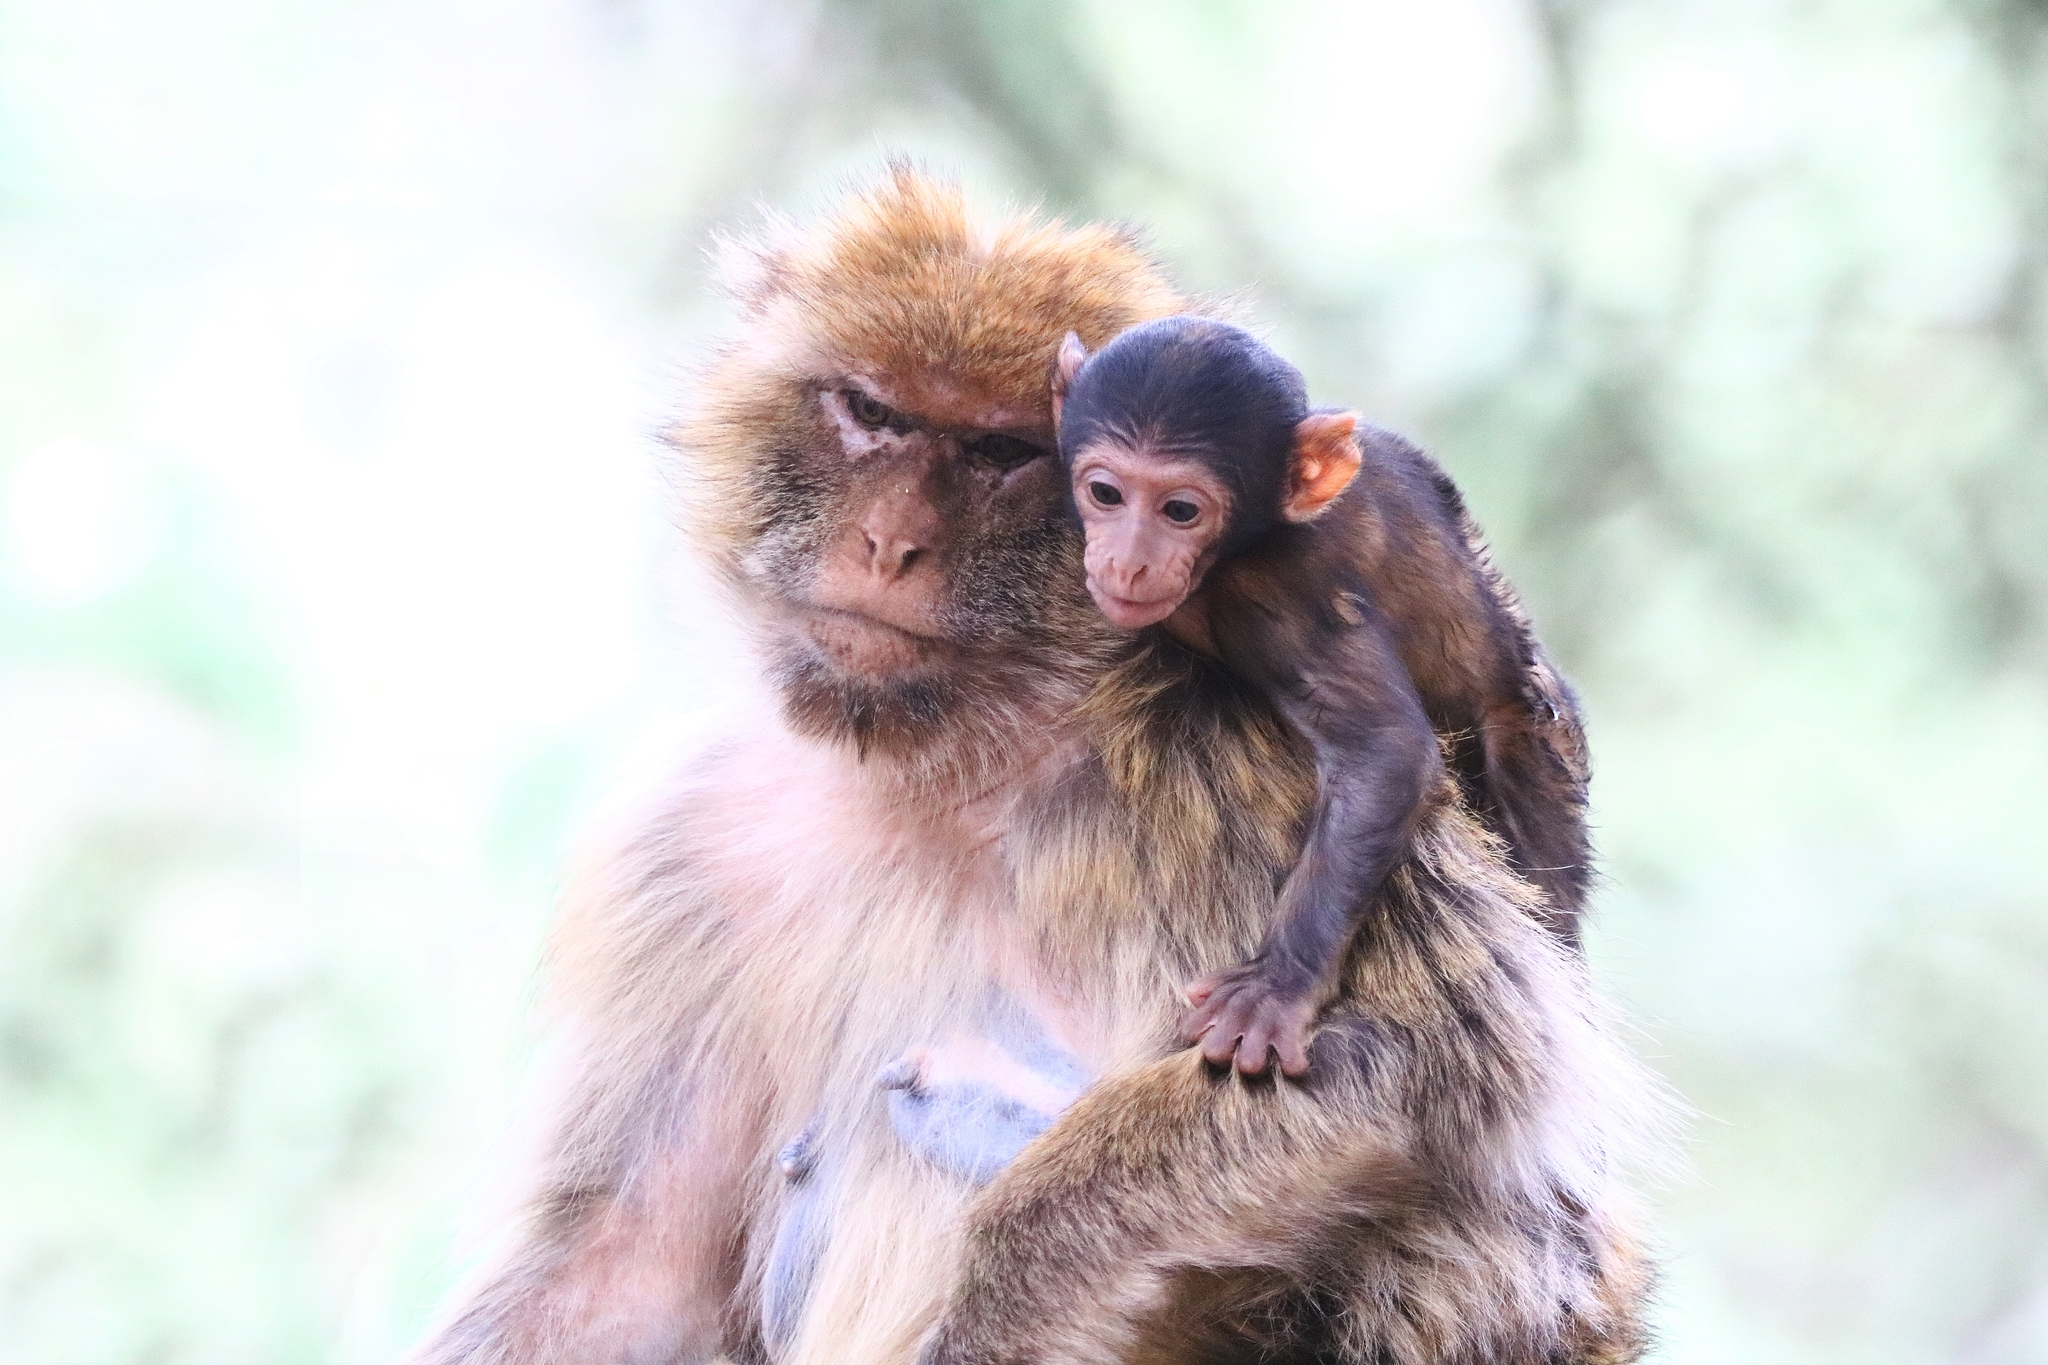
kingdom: Animalia
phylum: Chordata
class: Mammalia
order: Primates
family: Cercopithecidae
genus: Macaca
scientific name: Macaca sylvanus
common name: Barbary macaque
